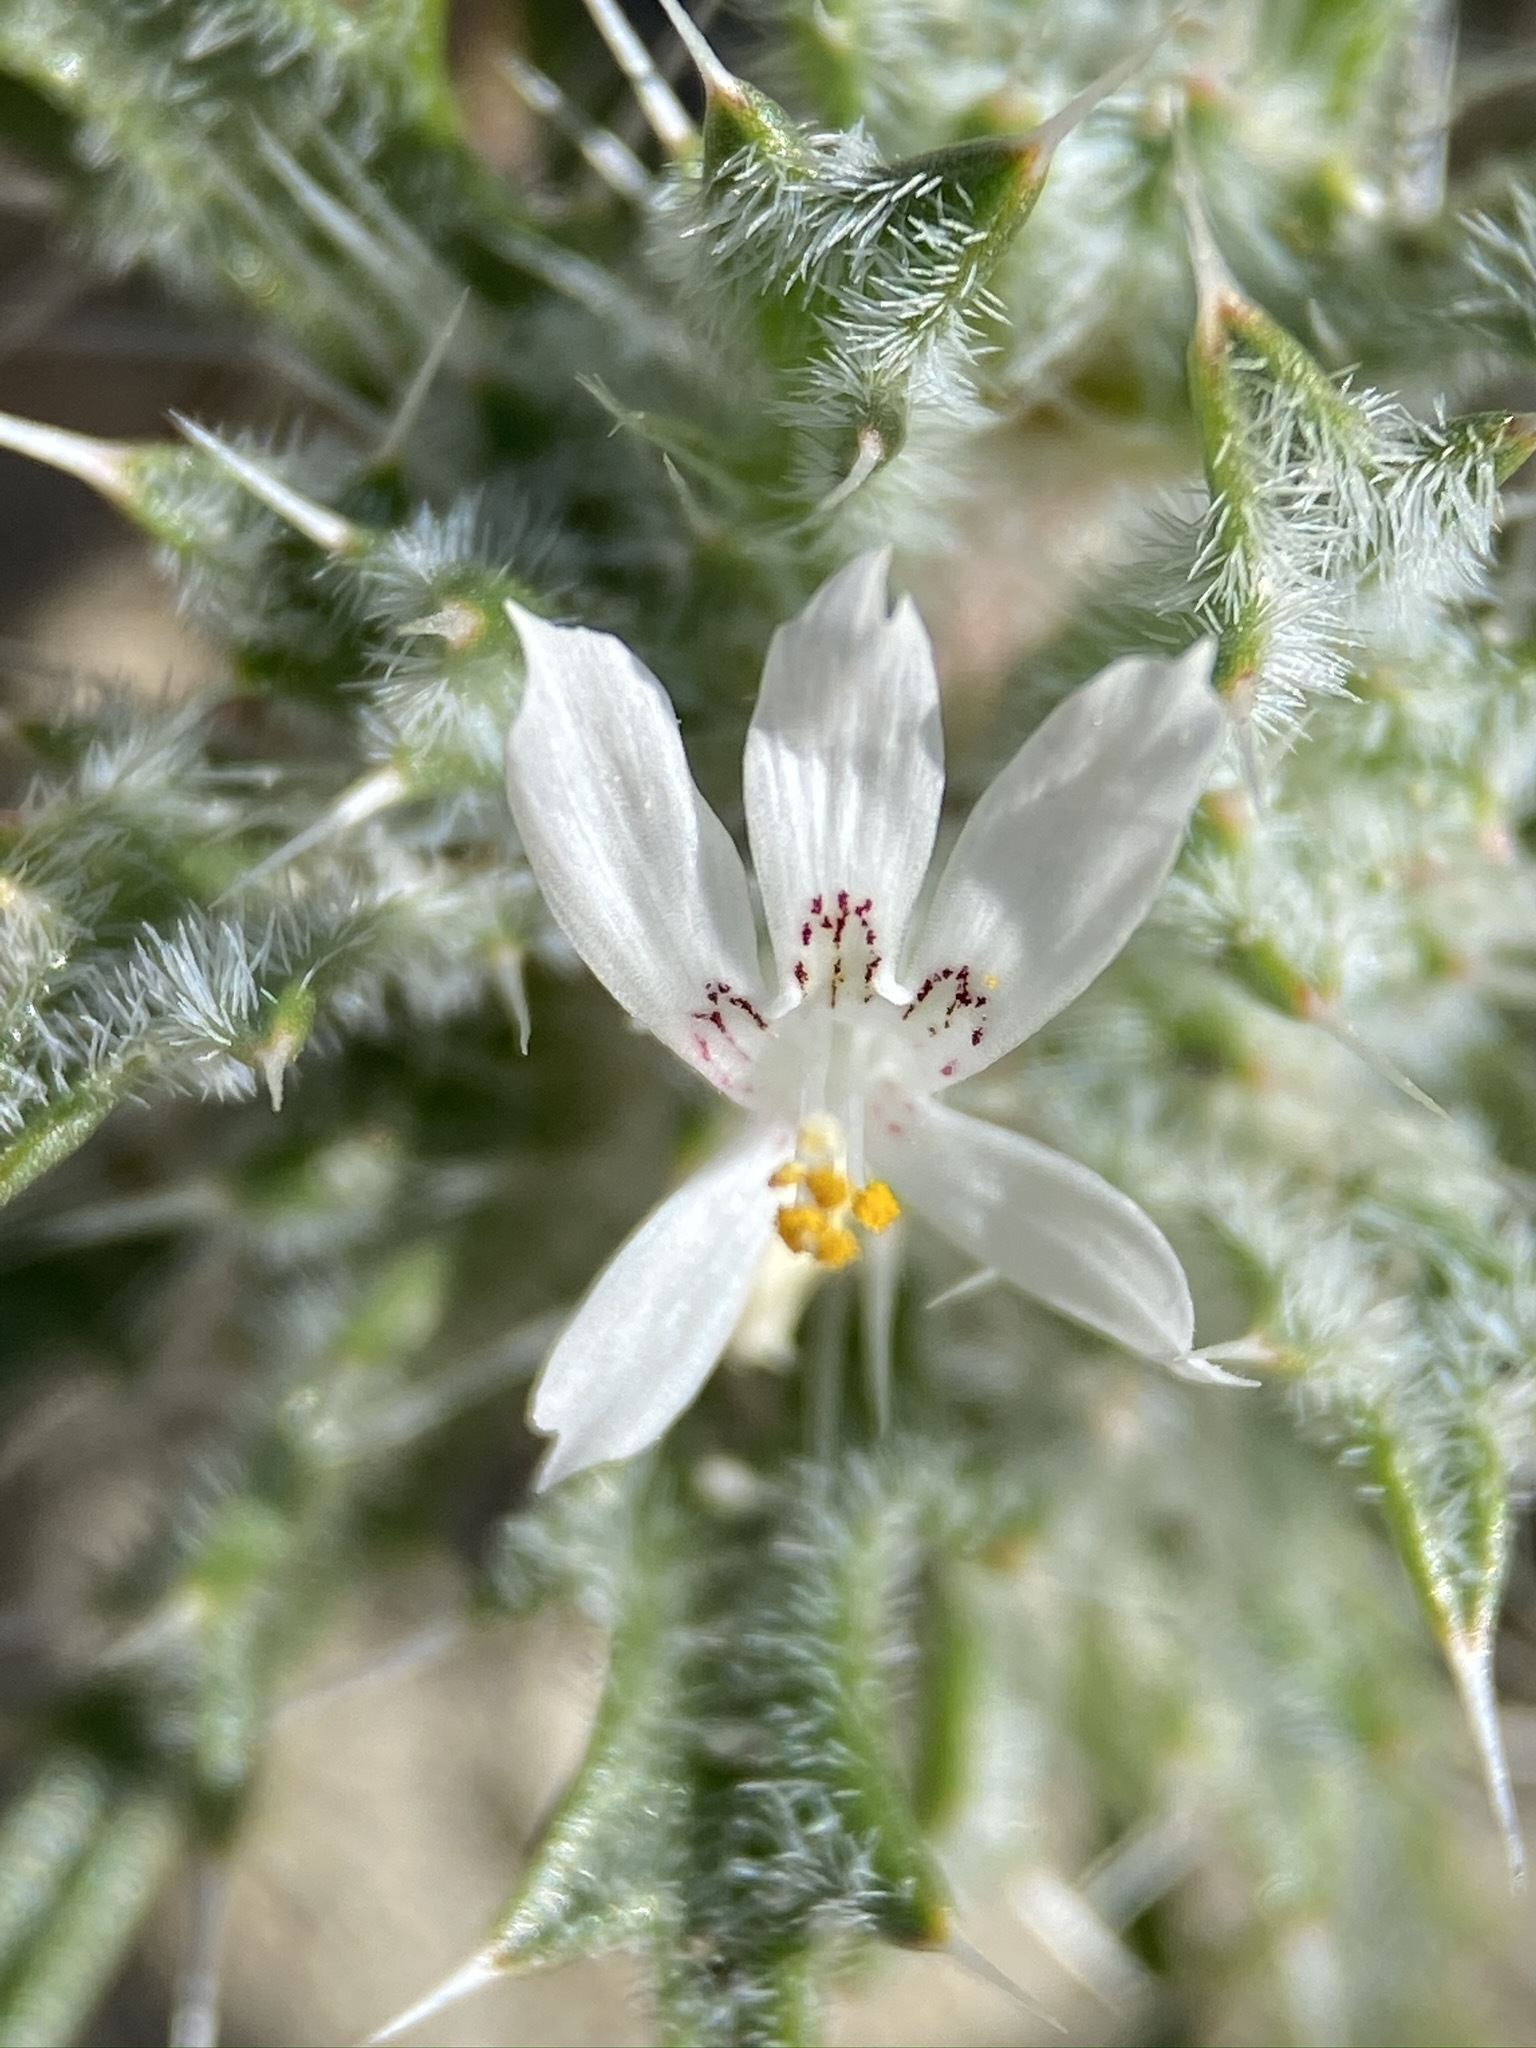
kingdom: Plantae
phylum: Tracheophyta
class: Magnoliopsida
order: Ericales
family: Polemoniaceae
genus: Loeseliastrum
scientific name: Loeseliastrum schottii
